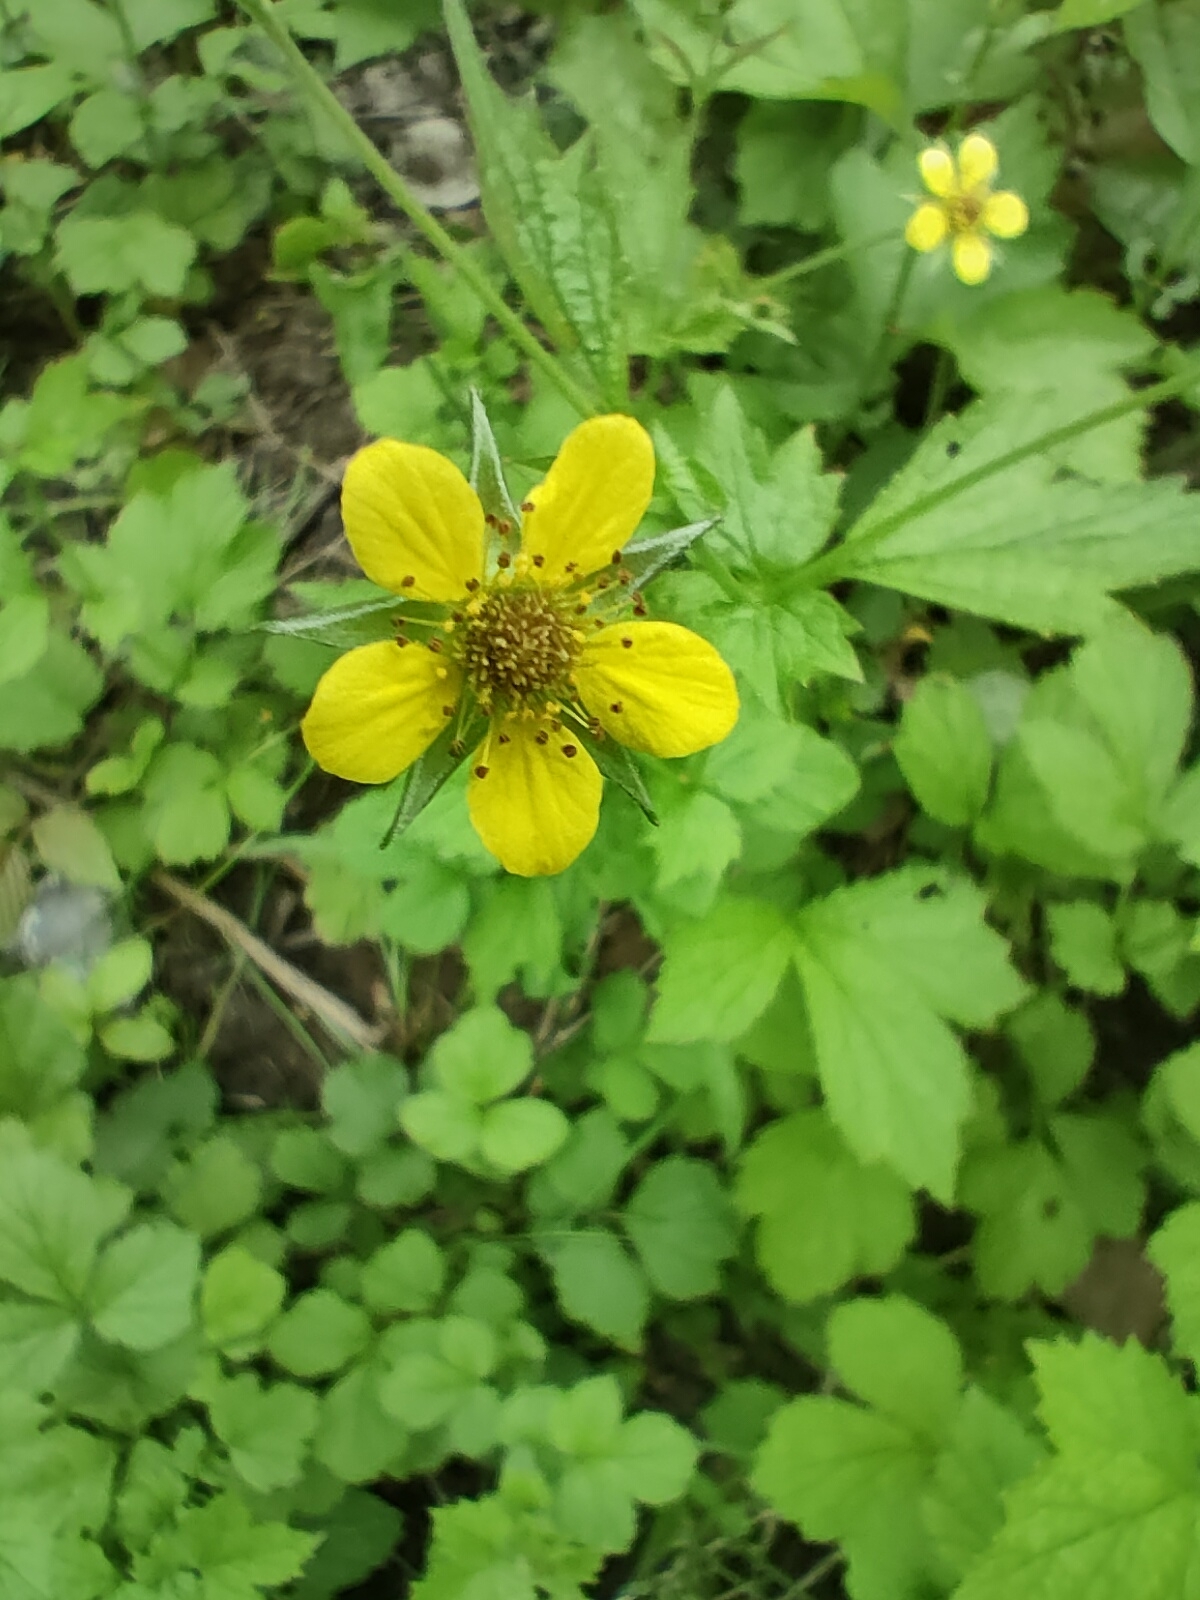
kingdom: Plantae
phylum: Tracheophyta
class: Magnoliopsida
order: Rosales
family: Rosaceae
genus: Geum
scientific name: Geum urbanum
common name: Wood avens
